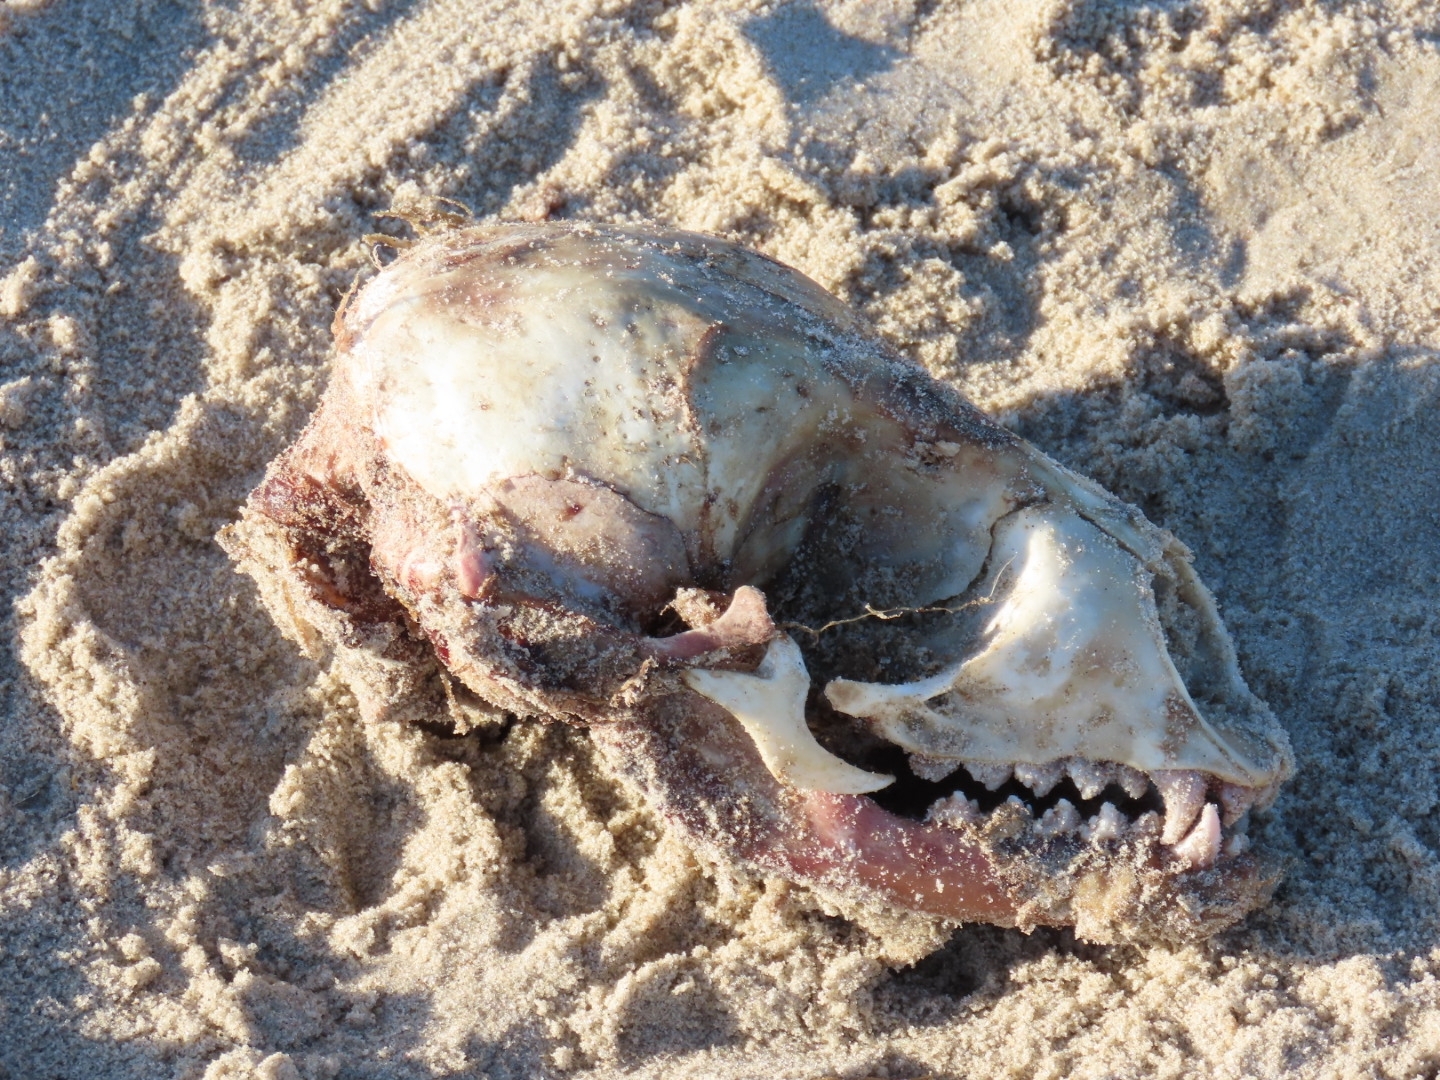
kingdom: Animalia
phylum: Chordata
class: Mammalia
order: Carnivora
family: Phocidae
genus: Phoca
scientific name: Phoca vitulina
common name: Harbor seal
